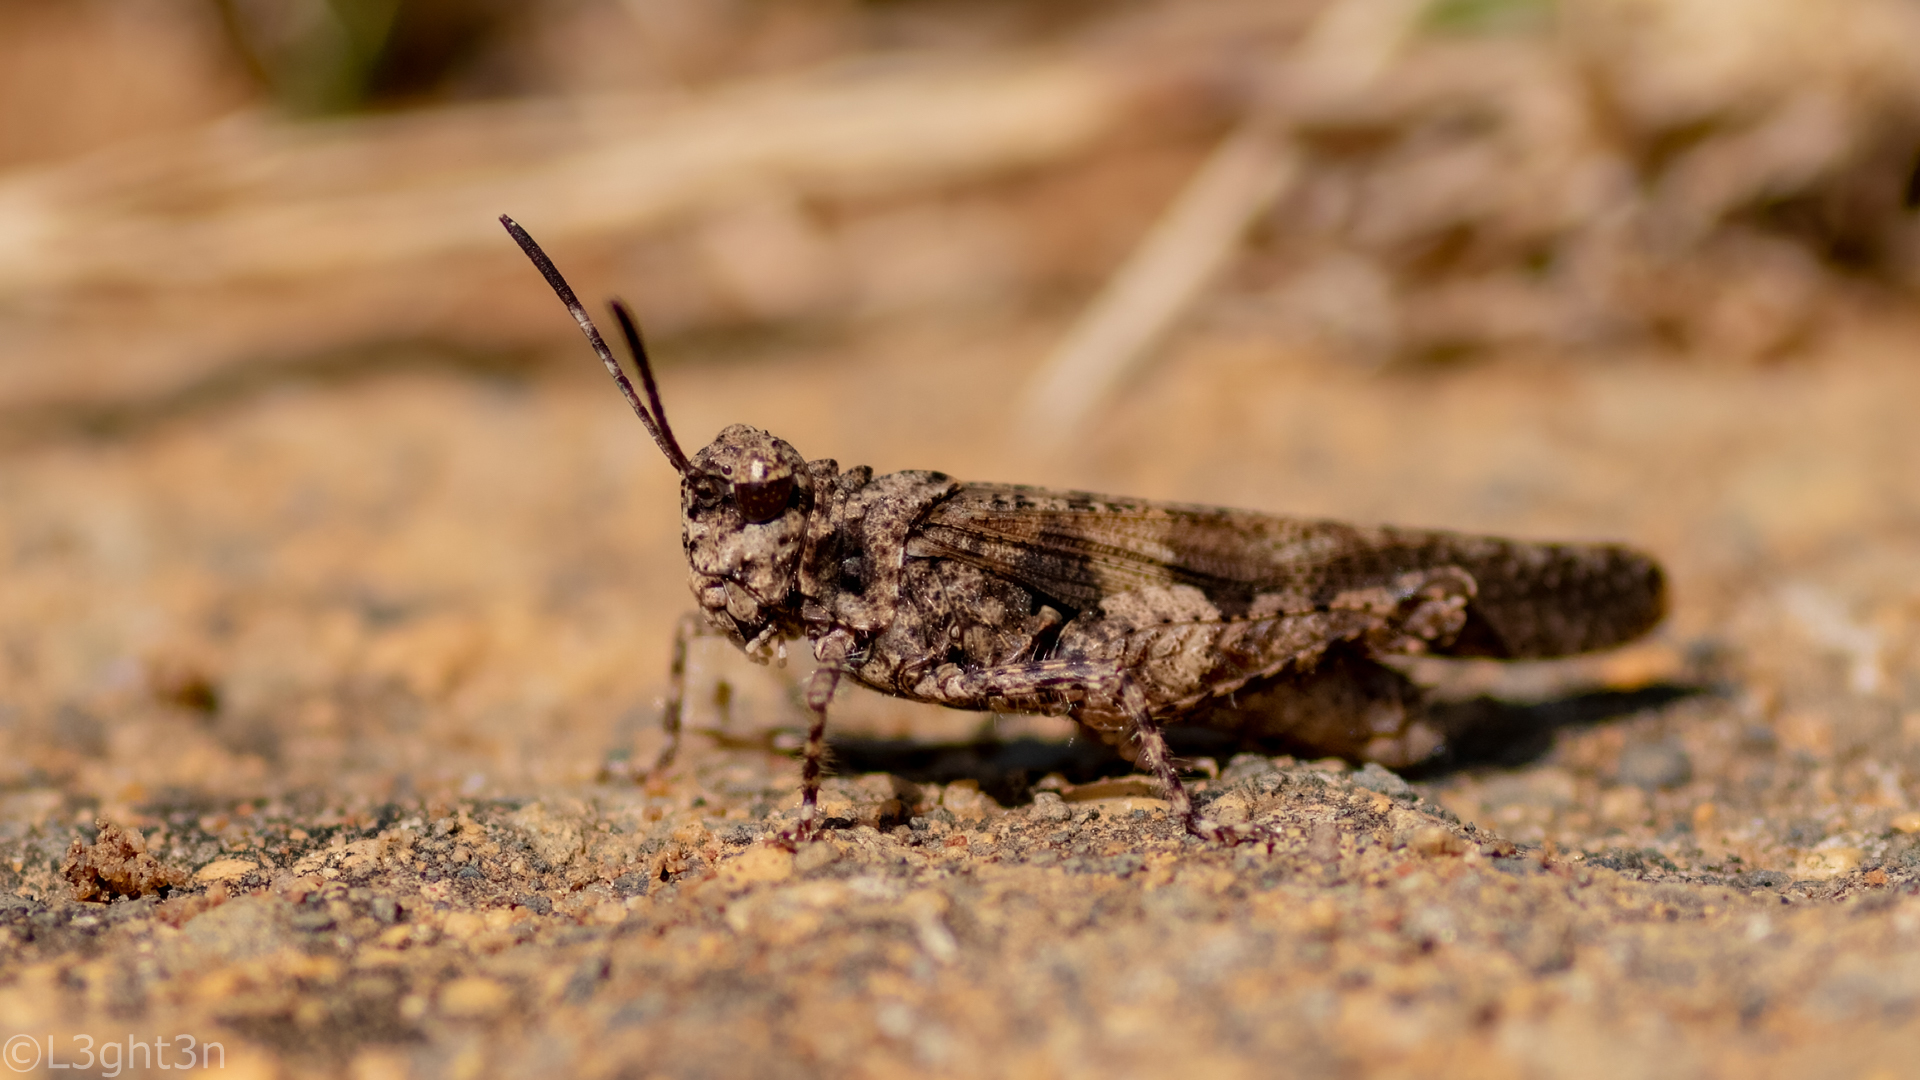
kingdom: Animalia
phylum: Arthropoda
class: Insecta
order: Orthoptera
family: Acrididae
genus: Trilophidia
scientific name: Trilophidia conturbata
